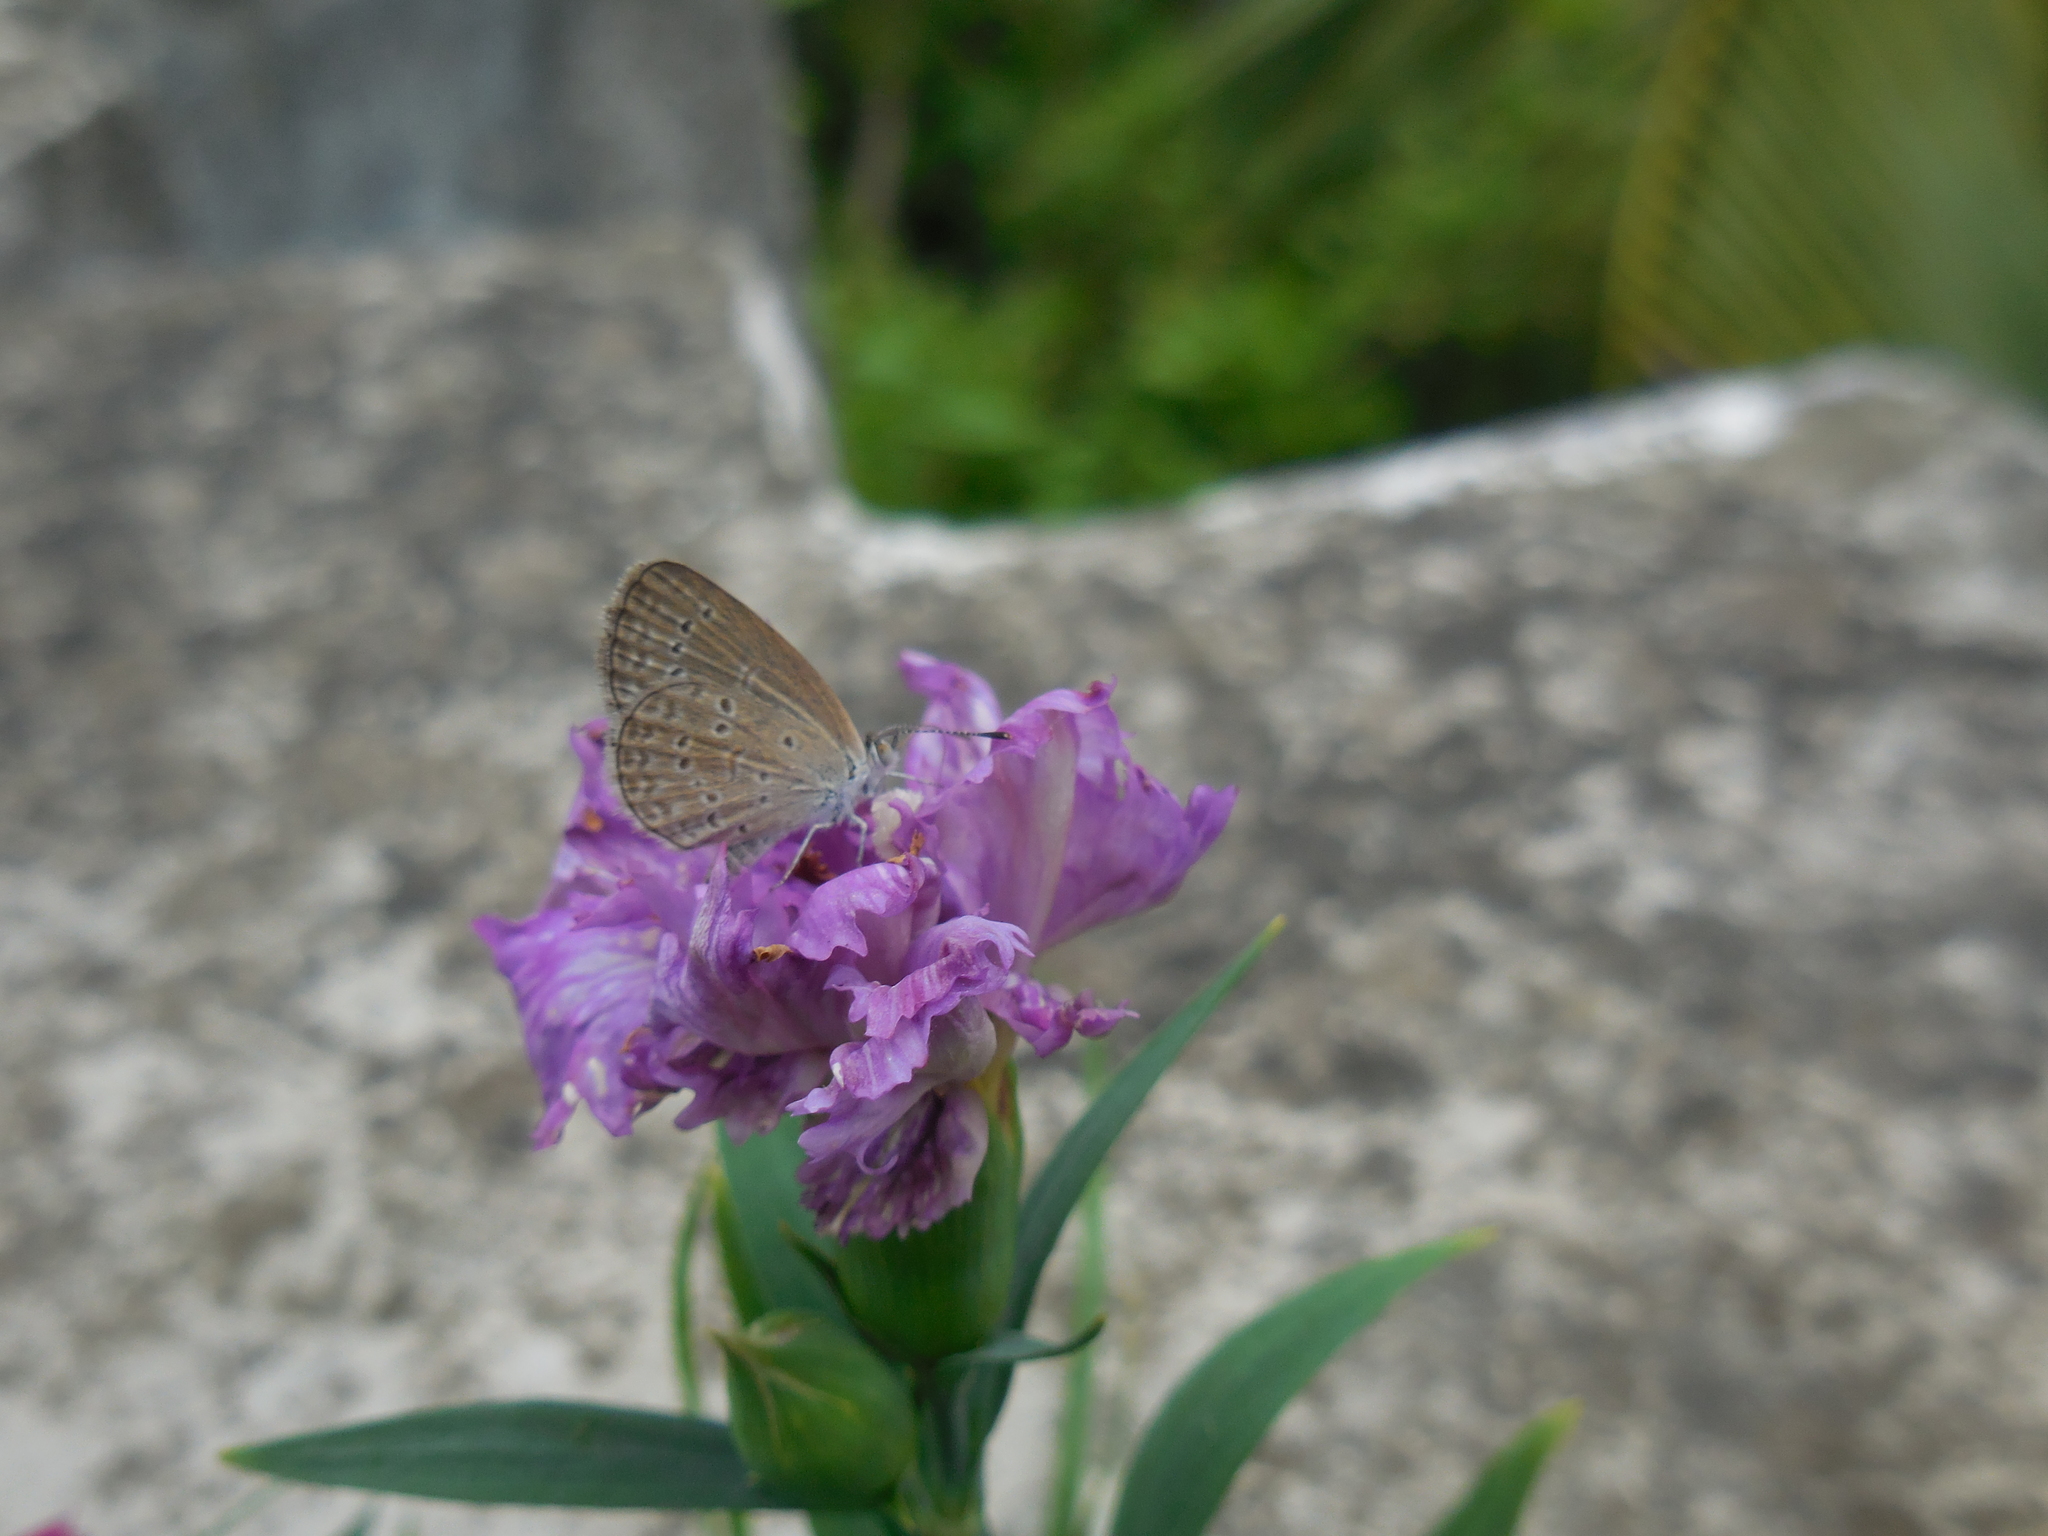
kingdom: Animalia
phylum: Arthropoda
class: Insecta
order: Lepidoptera
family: Lycaenidae
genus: Zizina
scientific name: Zizina otis
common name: Lesser grass blue
